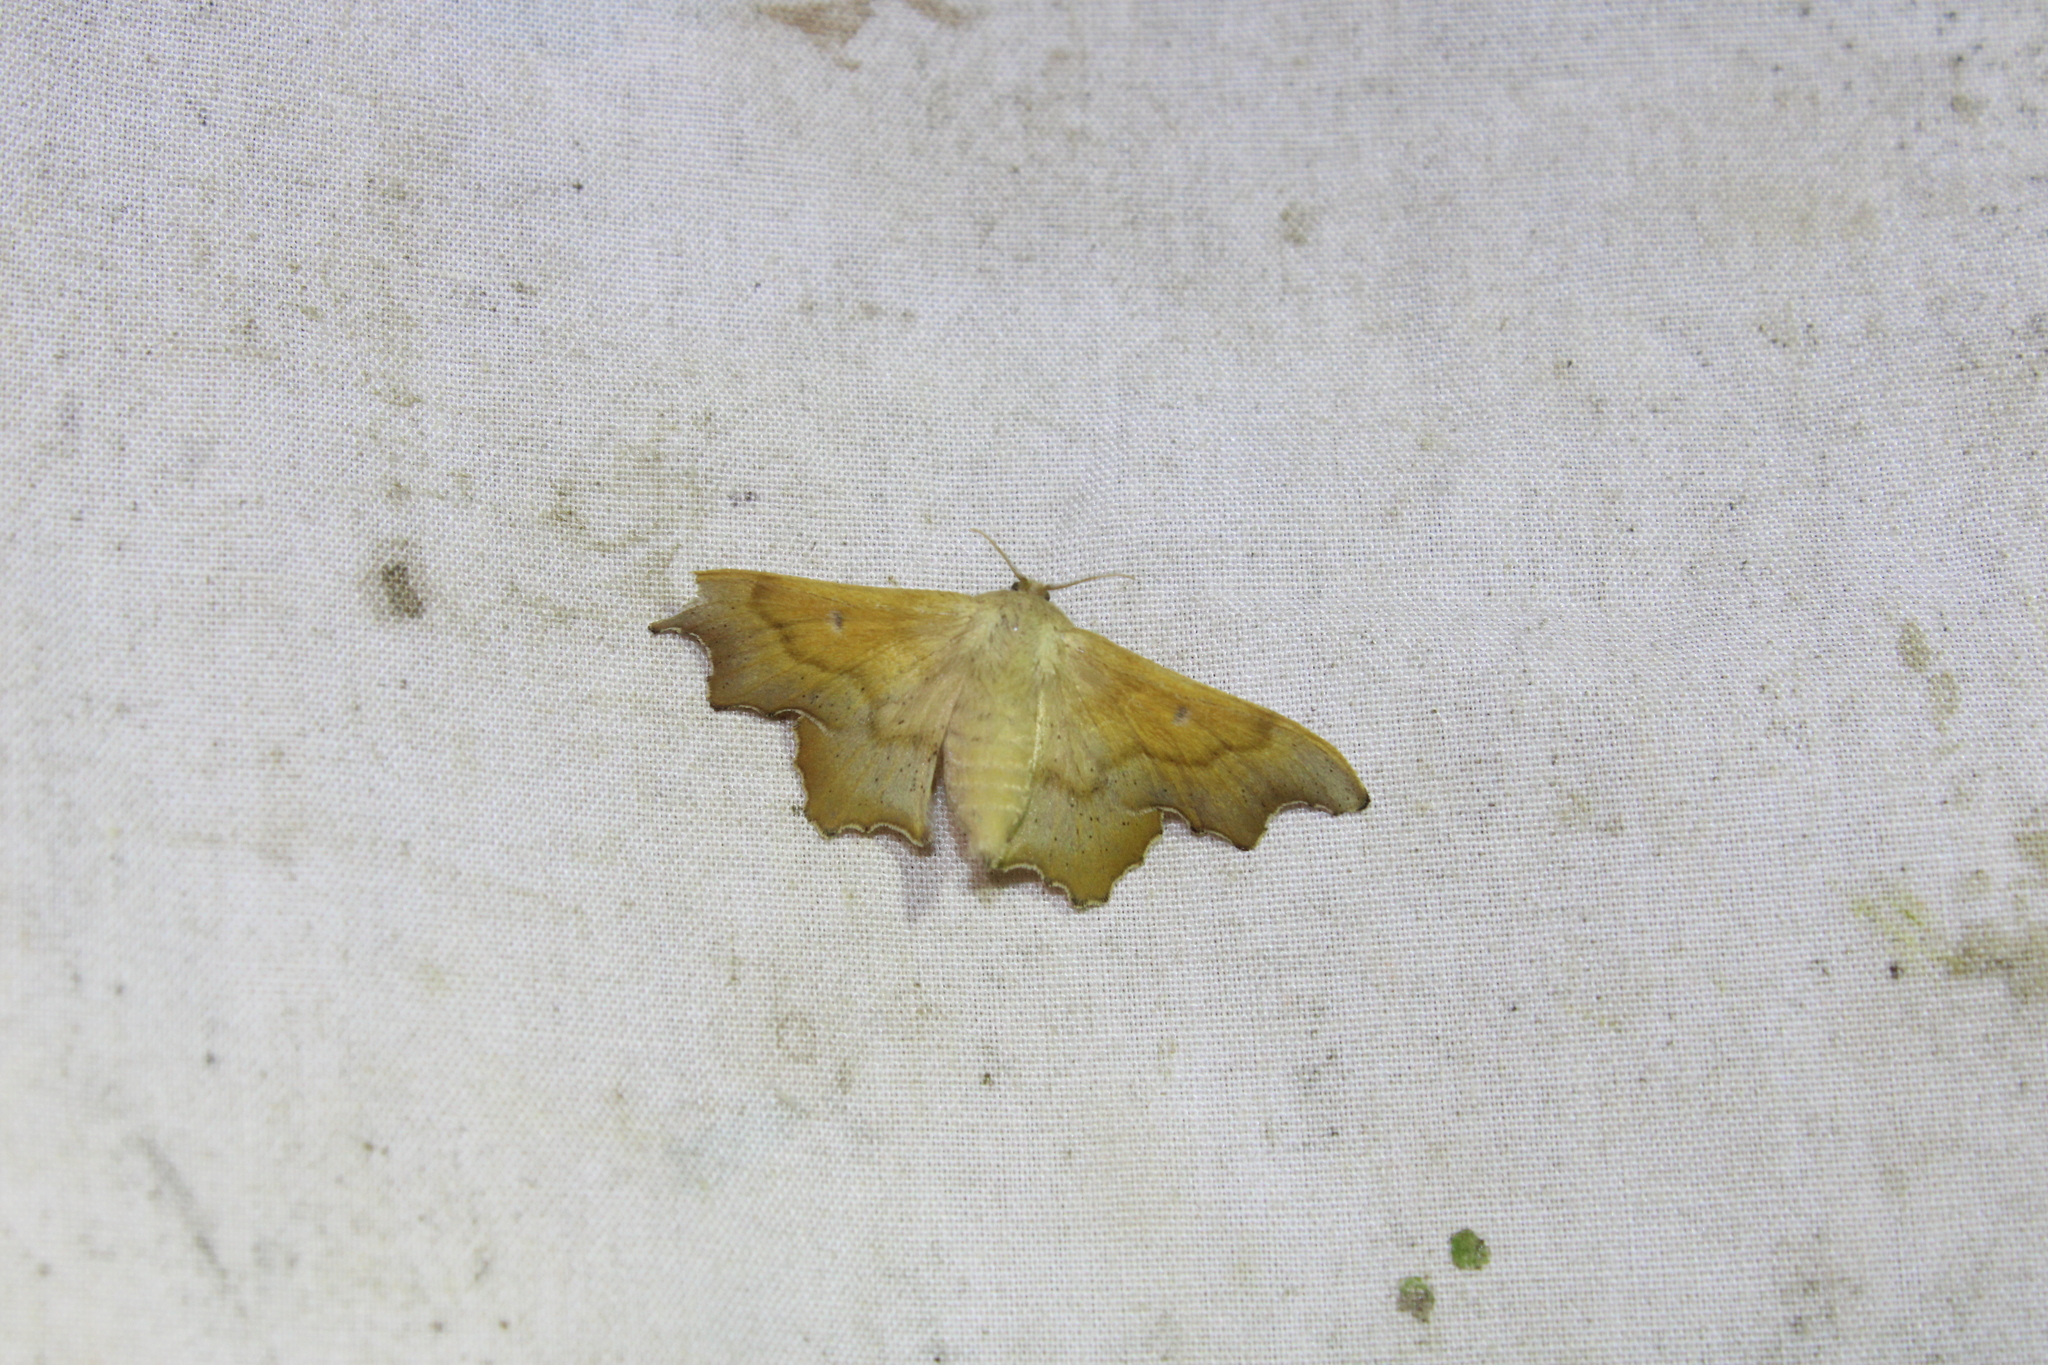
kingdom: Animalia
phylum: Arthropoda
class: Insecta
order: Lepidoptera
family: Mimallonidae
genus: Lacosoma
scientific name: Lacosoma chiridota
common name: Scalloped sack-bearer moth
